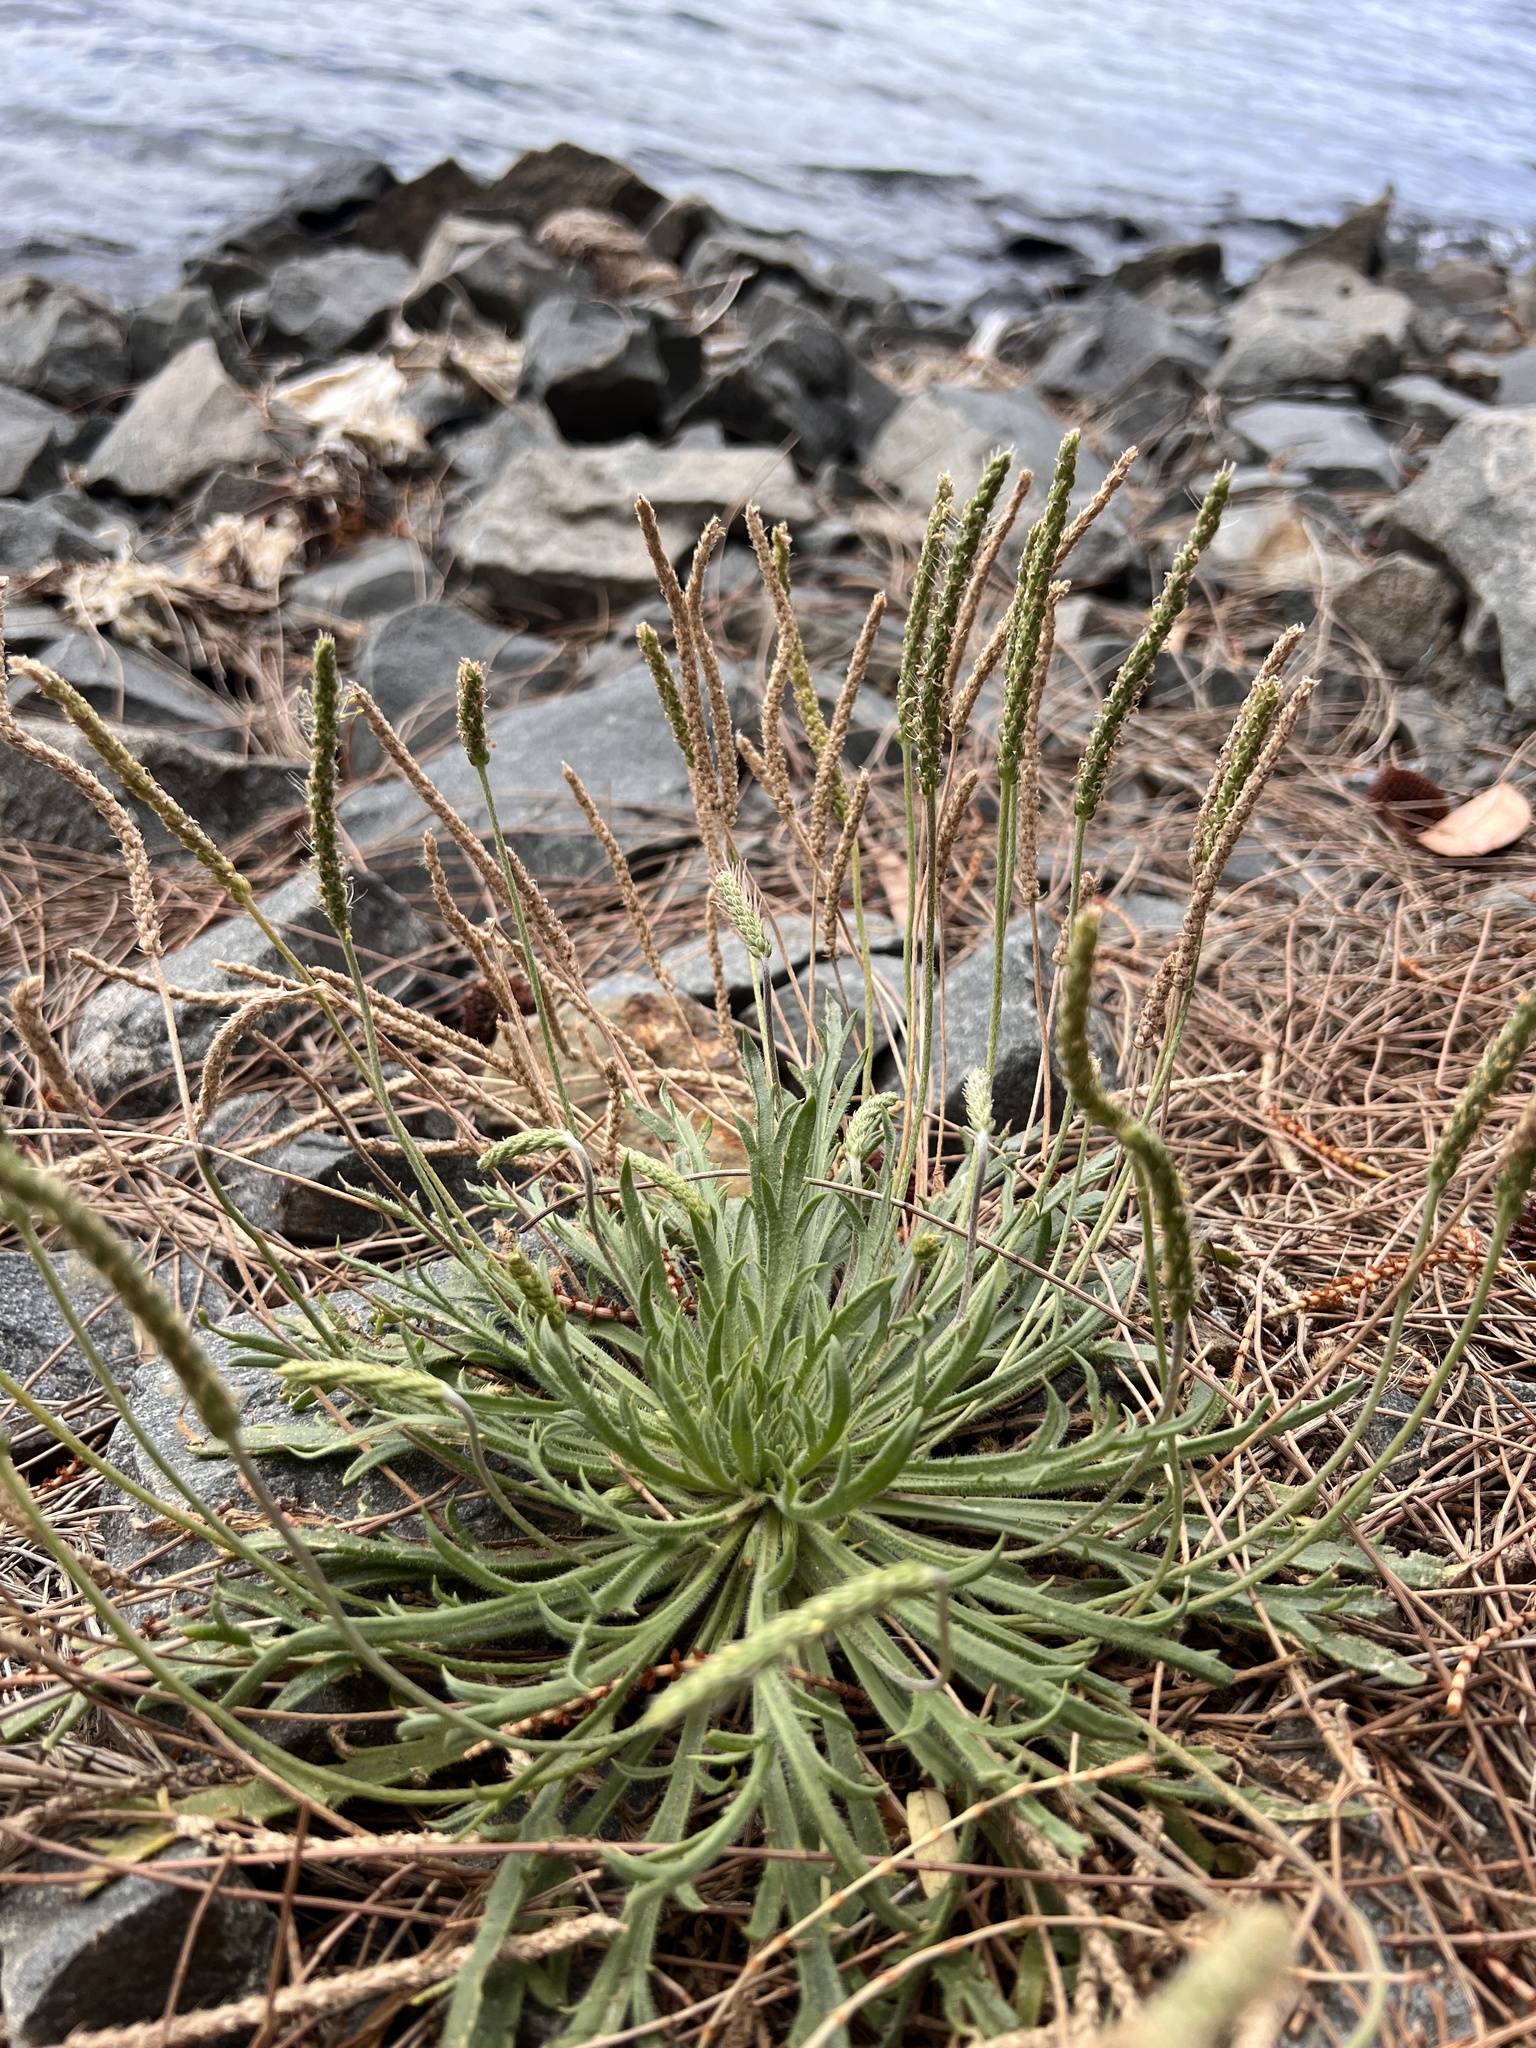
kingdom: Plantae
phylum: Tracheophyta
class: Magnoliopsida
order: Lamiales
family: Plantaginaceae
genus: Plantago
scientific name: Plantago coronopus
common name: Buck's-horn plantain
